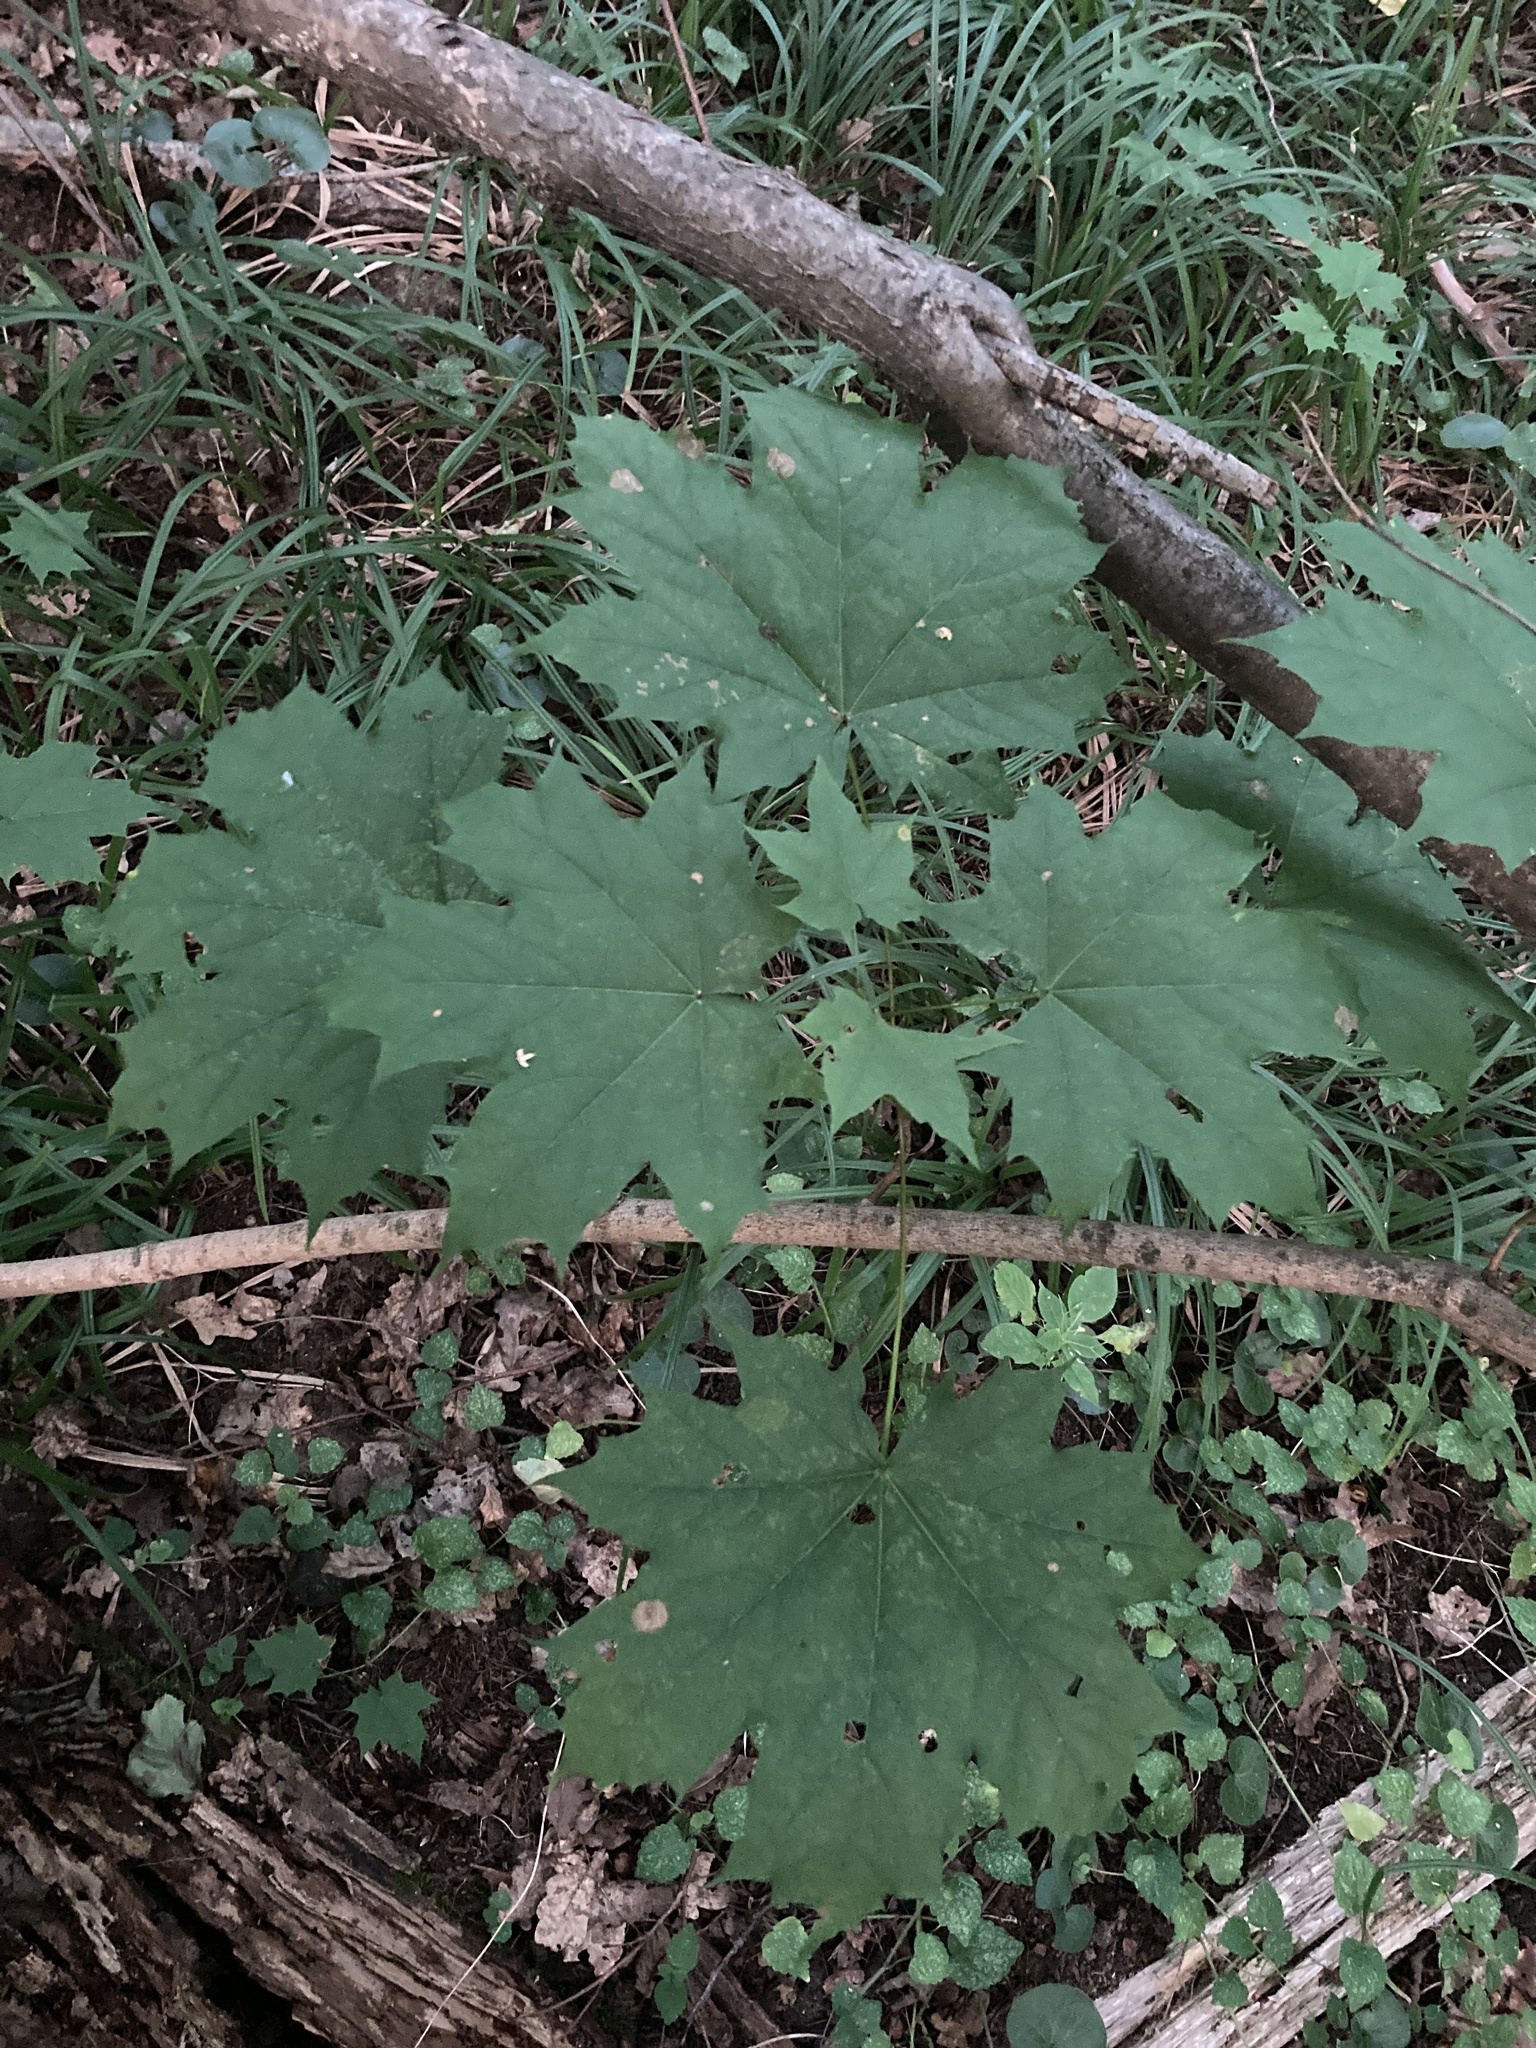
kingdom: Plantae
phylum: Tracheophyta
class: Magnoliopsida
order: Sapindales
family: Sapindaceae
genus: Acer
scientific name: Acer platanoides
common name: Norway maple
